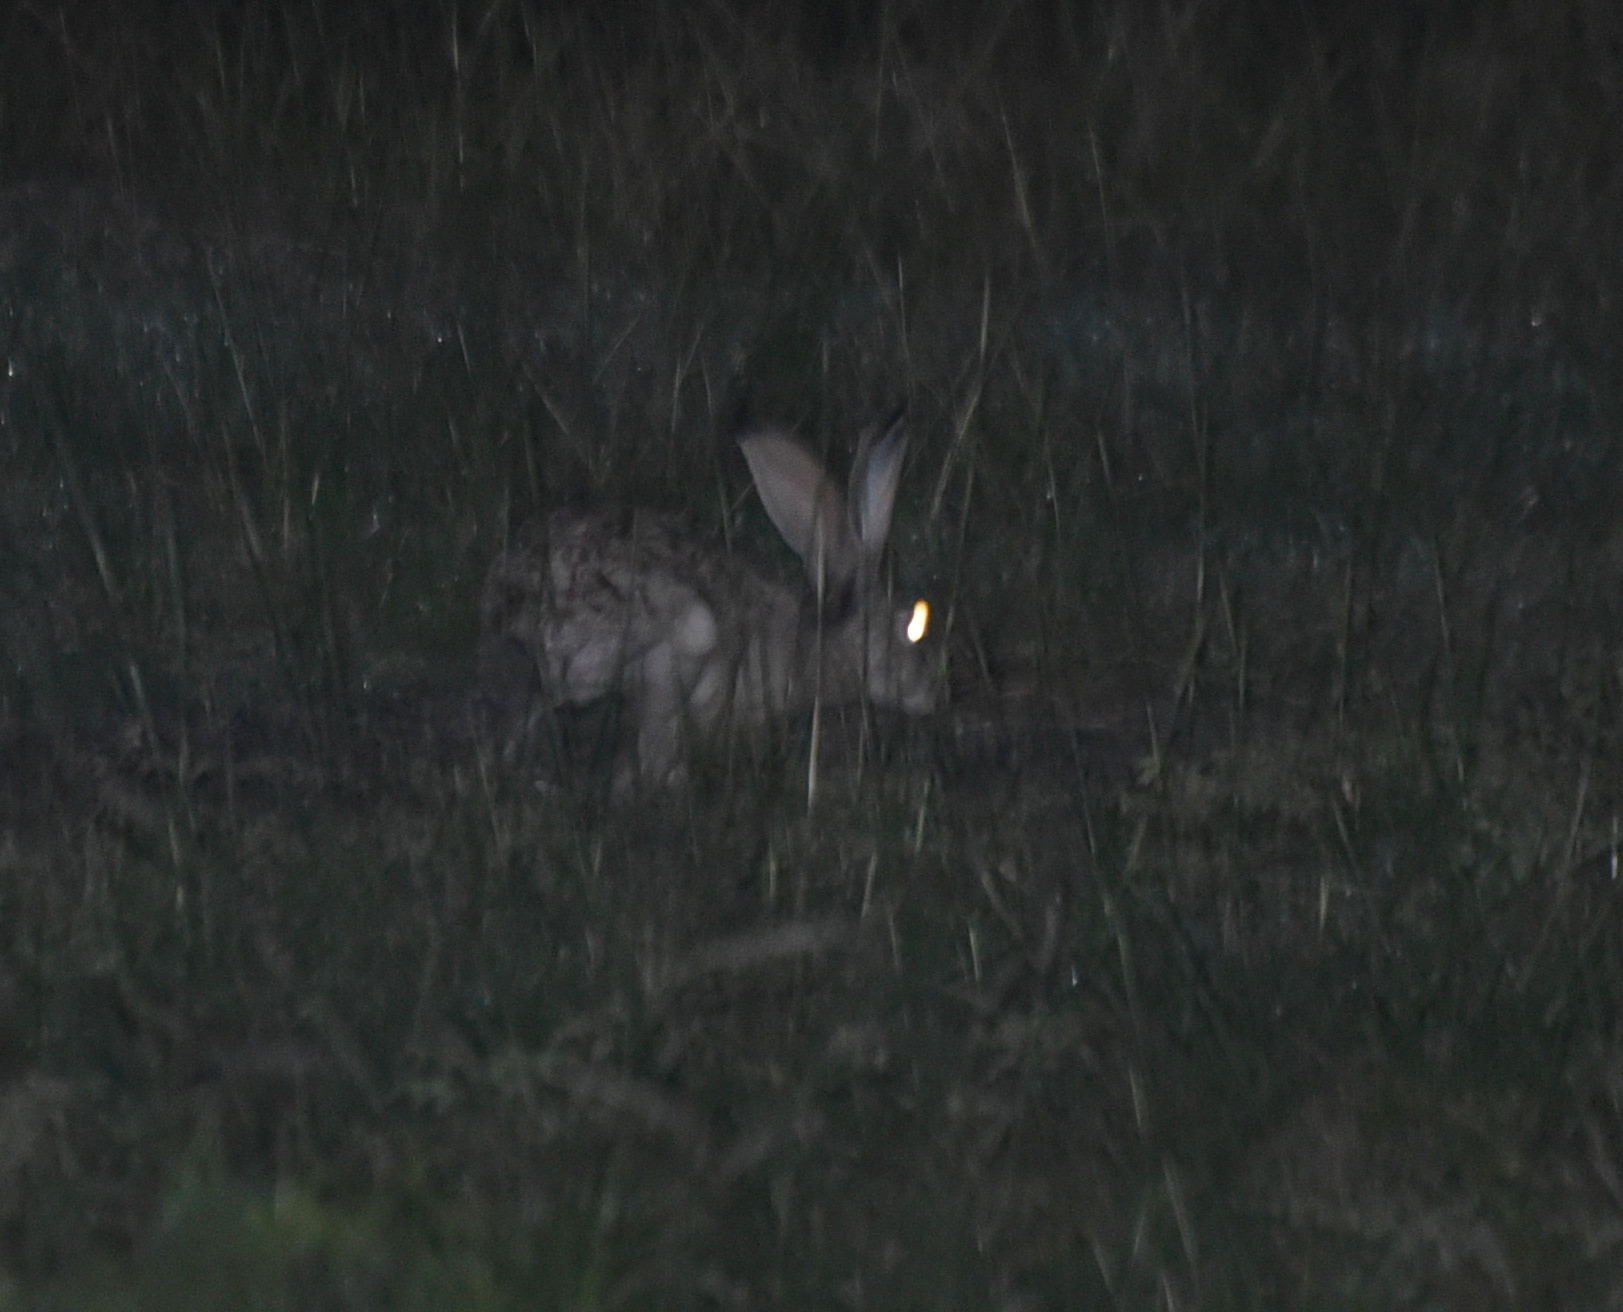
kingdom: Animalia
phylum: Chordata
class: Mammalia
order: Lagomorpha
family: Leporidae
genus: Lepus
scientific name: Lepus californicus
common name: Black-tailed jackrabbit
